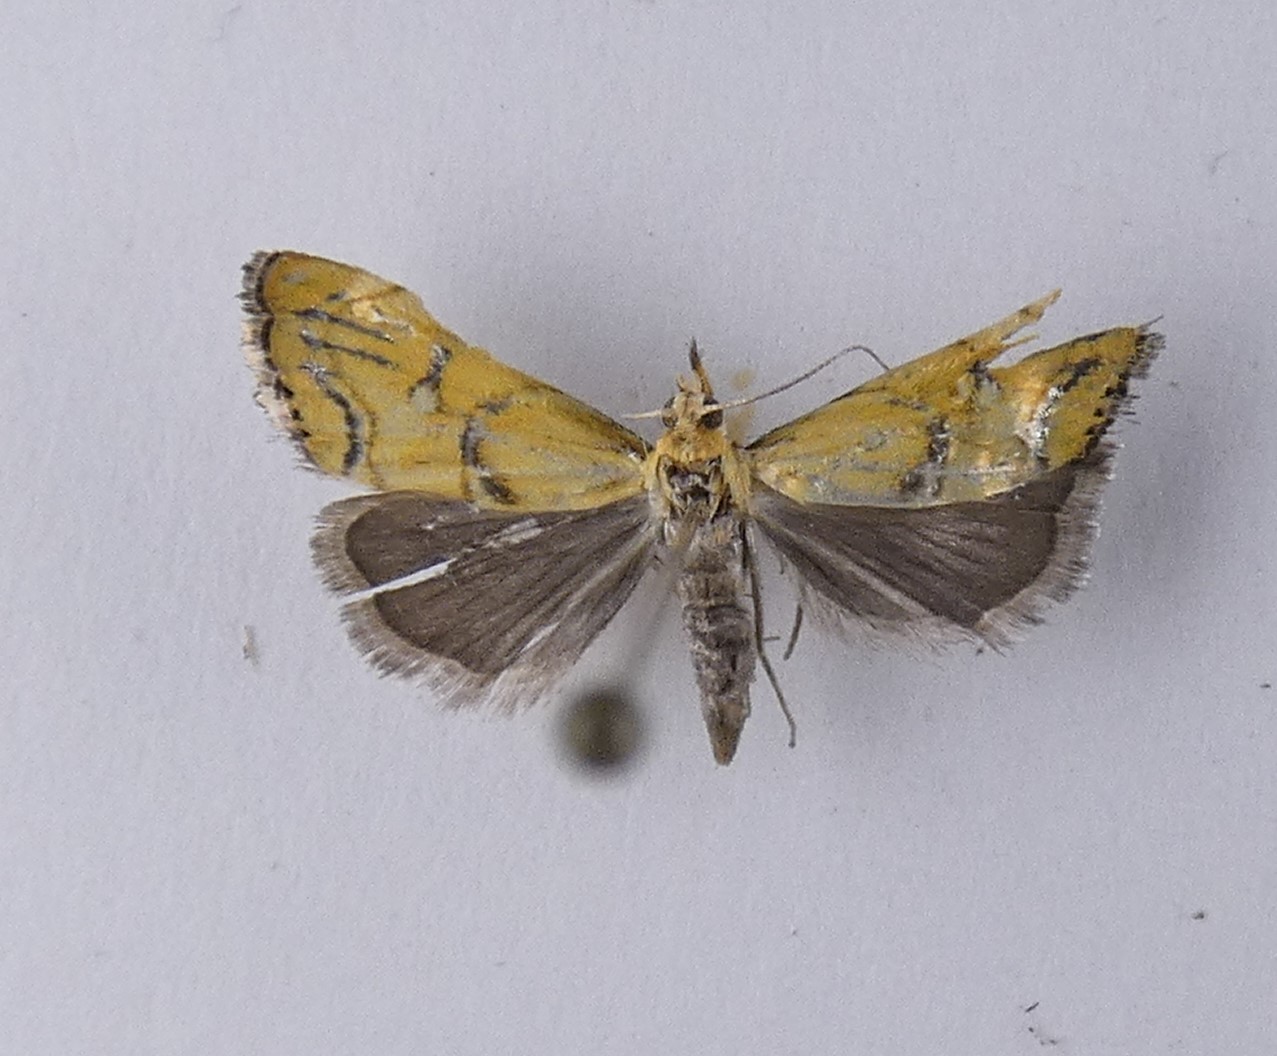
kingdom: Animalia
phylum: Arthropoda
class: Insecta
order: Lepidoptera
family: Crambidae
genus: Glaucocharis
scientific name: Glaucocharis auriscriptella
